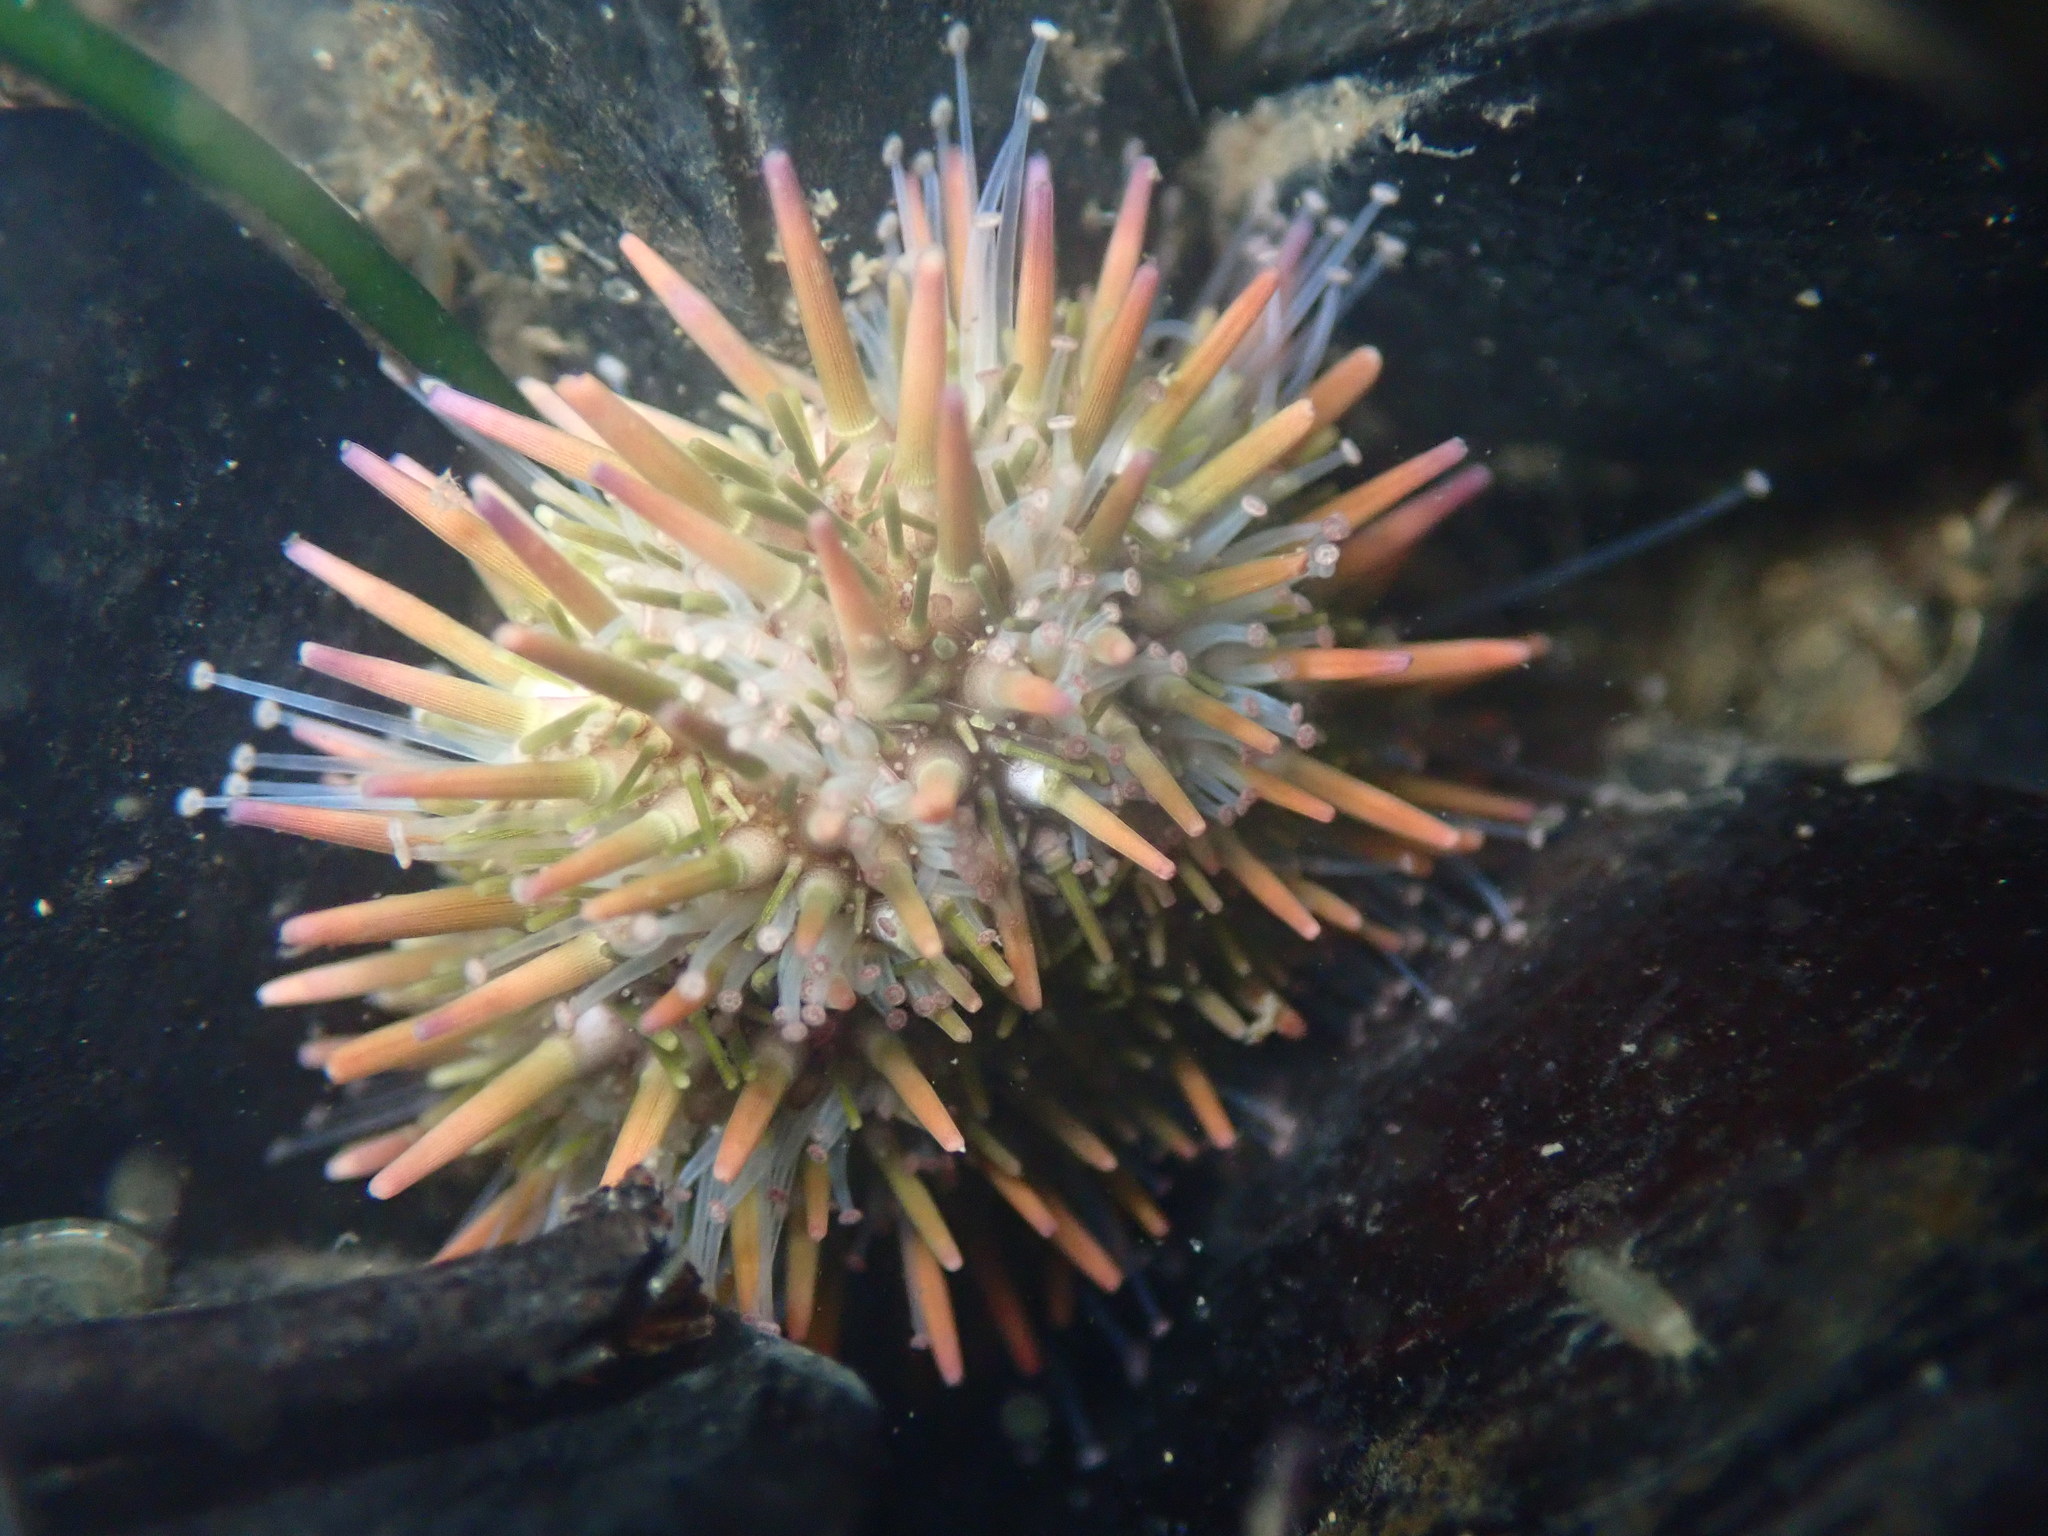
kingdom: Animalia
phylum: Echinodermata
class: Echinoidea
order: Camarodonta
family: Strongylocentrotidae
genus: Strongylocentrotus
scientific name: Strongylocentrotus purpuratus
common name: Purple sea urchin
